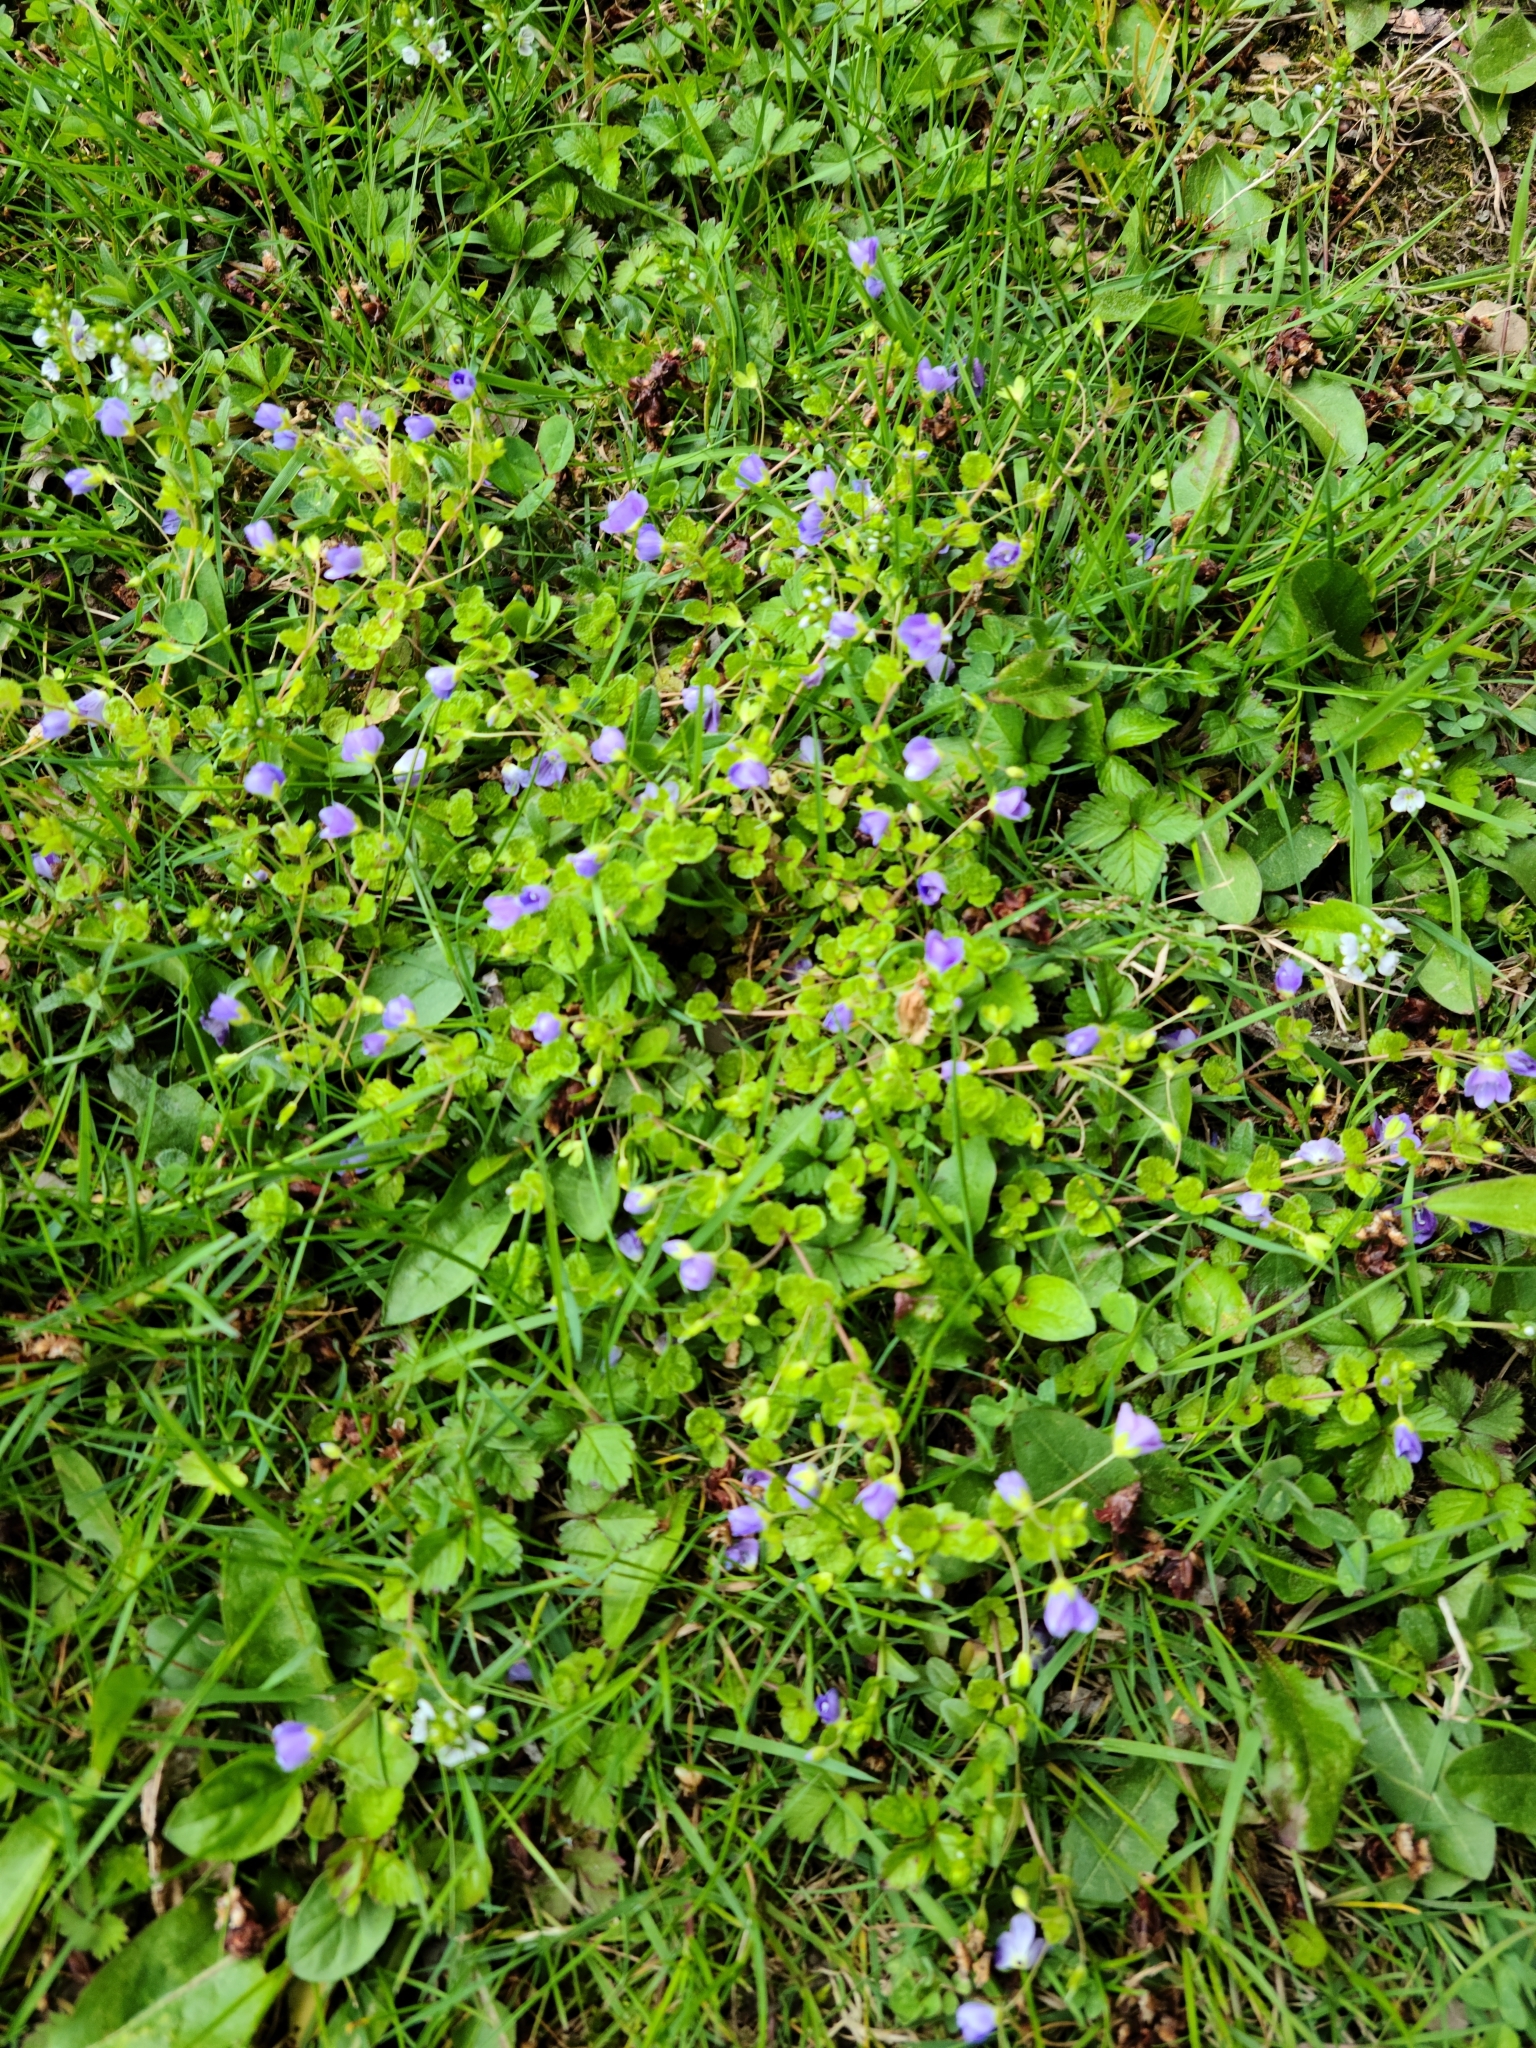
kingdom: Plantae
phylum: Tracheophyta
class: Magnoliopsida
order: Lamiales
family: Plantaginaceae
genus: Veronica
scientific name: Veronica filiformis
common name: Slender speedwell
